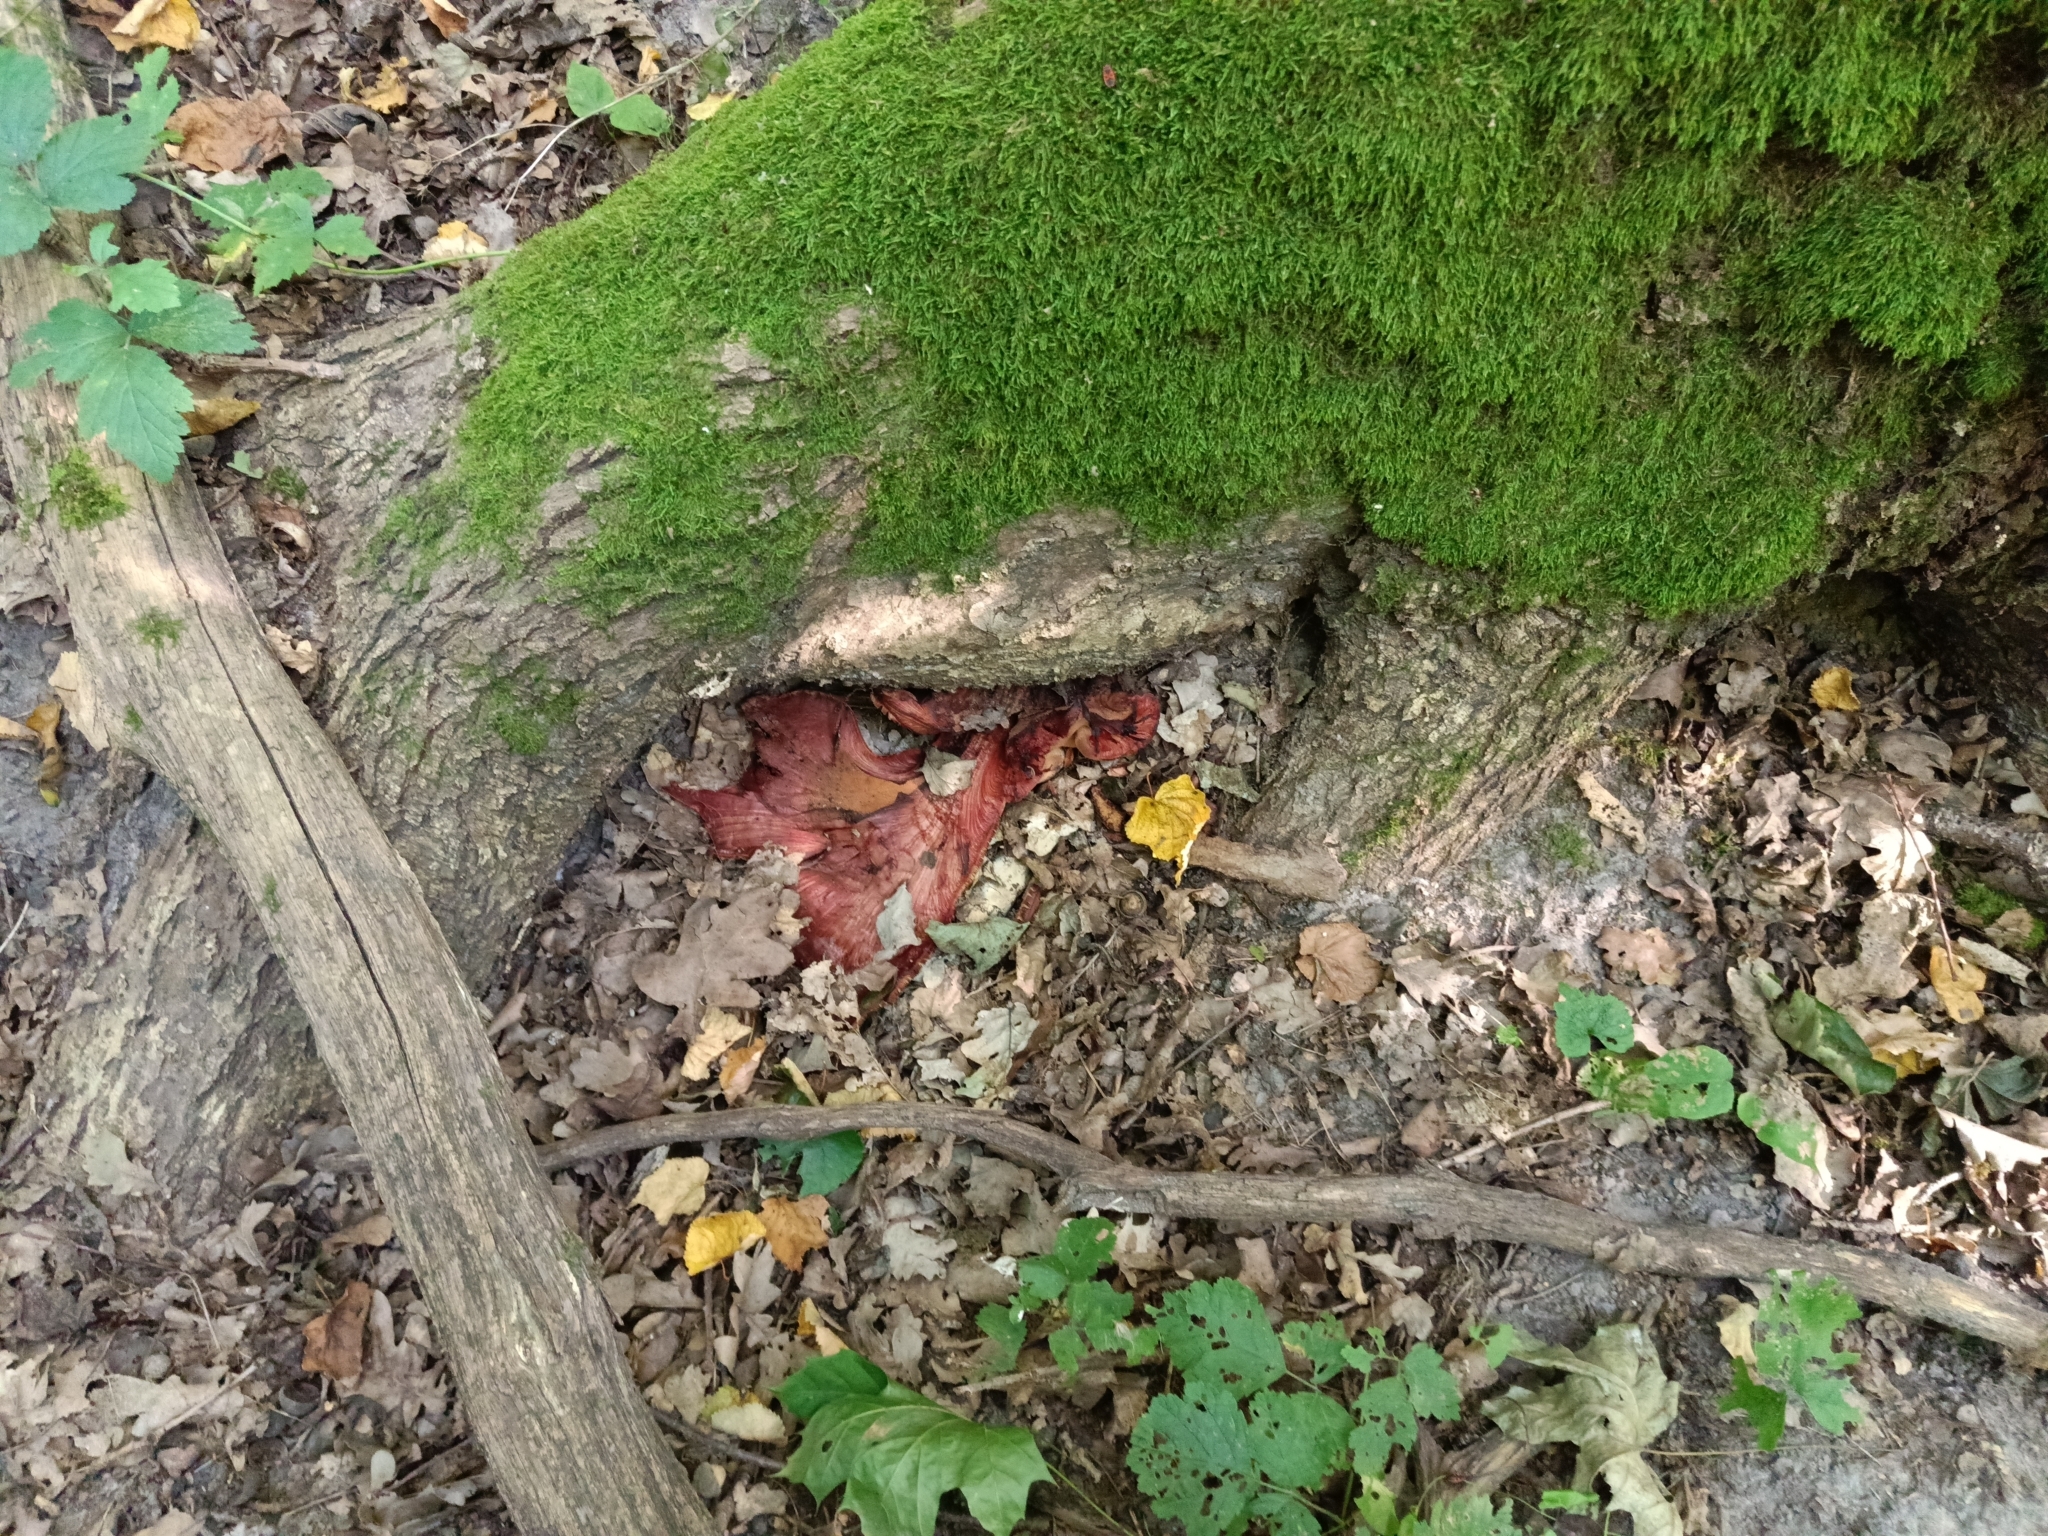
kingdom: Fungi
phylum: Basidiomycota
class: Agaricomycetes
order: Agaricales
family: Fistulinaceae
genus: Fistulina
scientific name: Fistulina hepatica
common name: Beef-steak fungus
